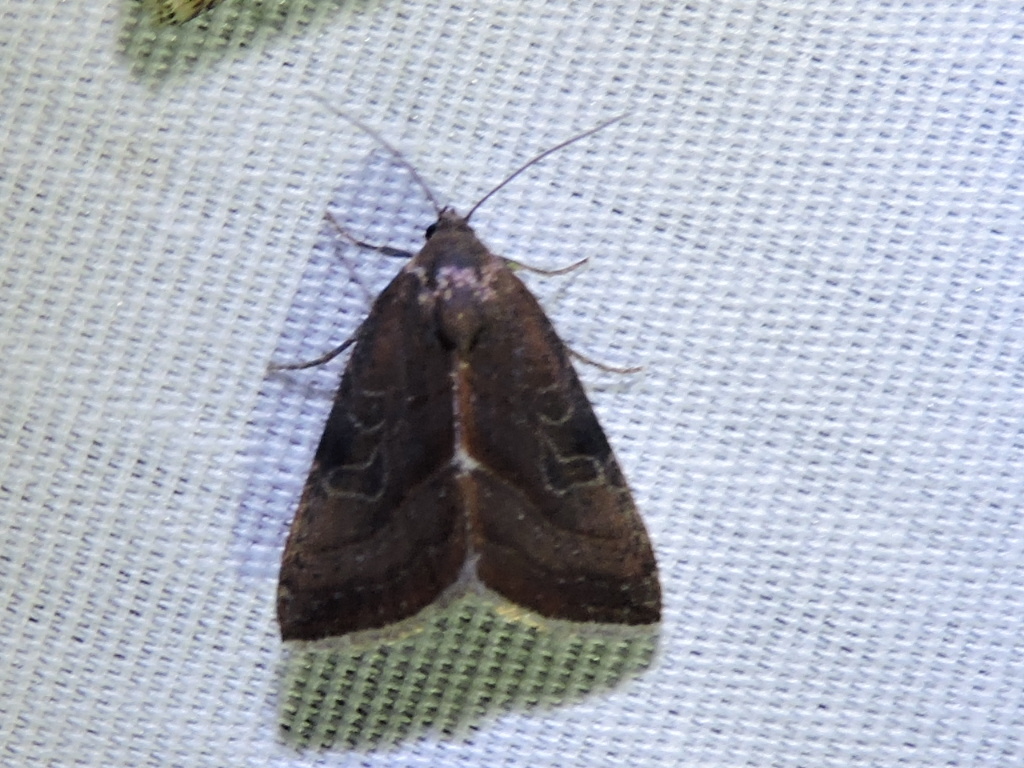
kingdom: Animalia
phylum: Arthropoda
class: Insecta
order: Lepidoptera
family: Noctuidae
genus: Galgula
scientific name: Galgula partita
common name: Wedgeling
